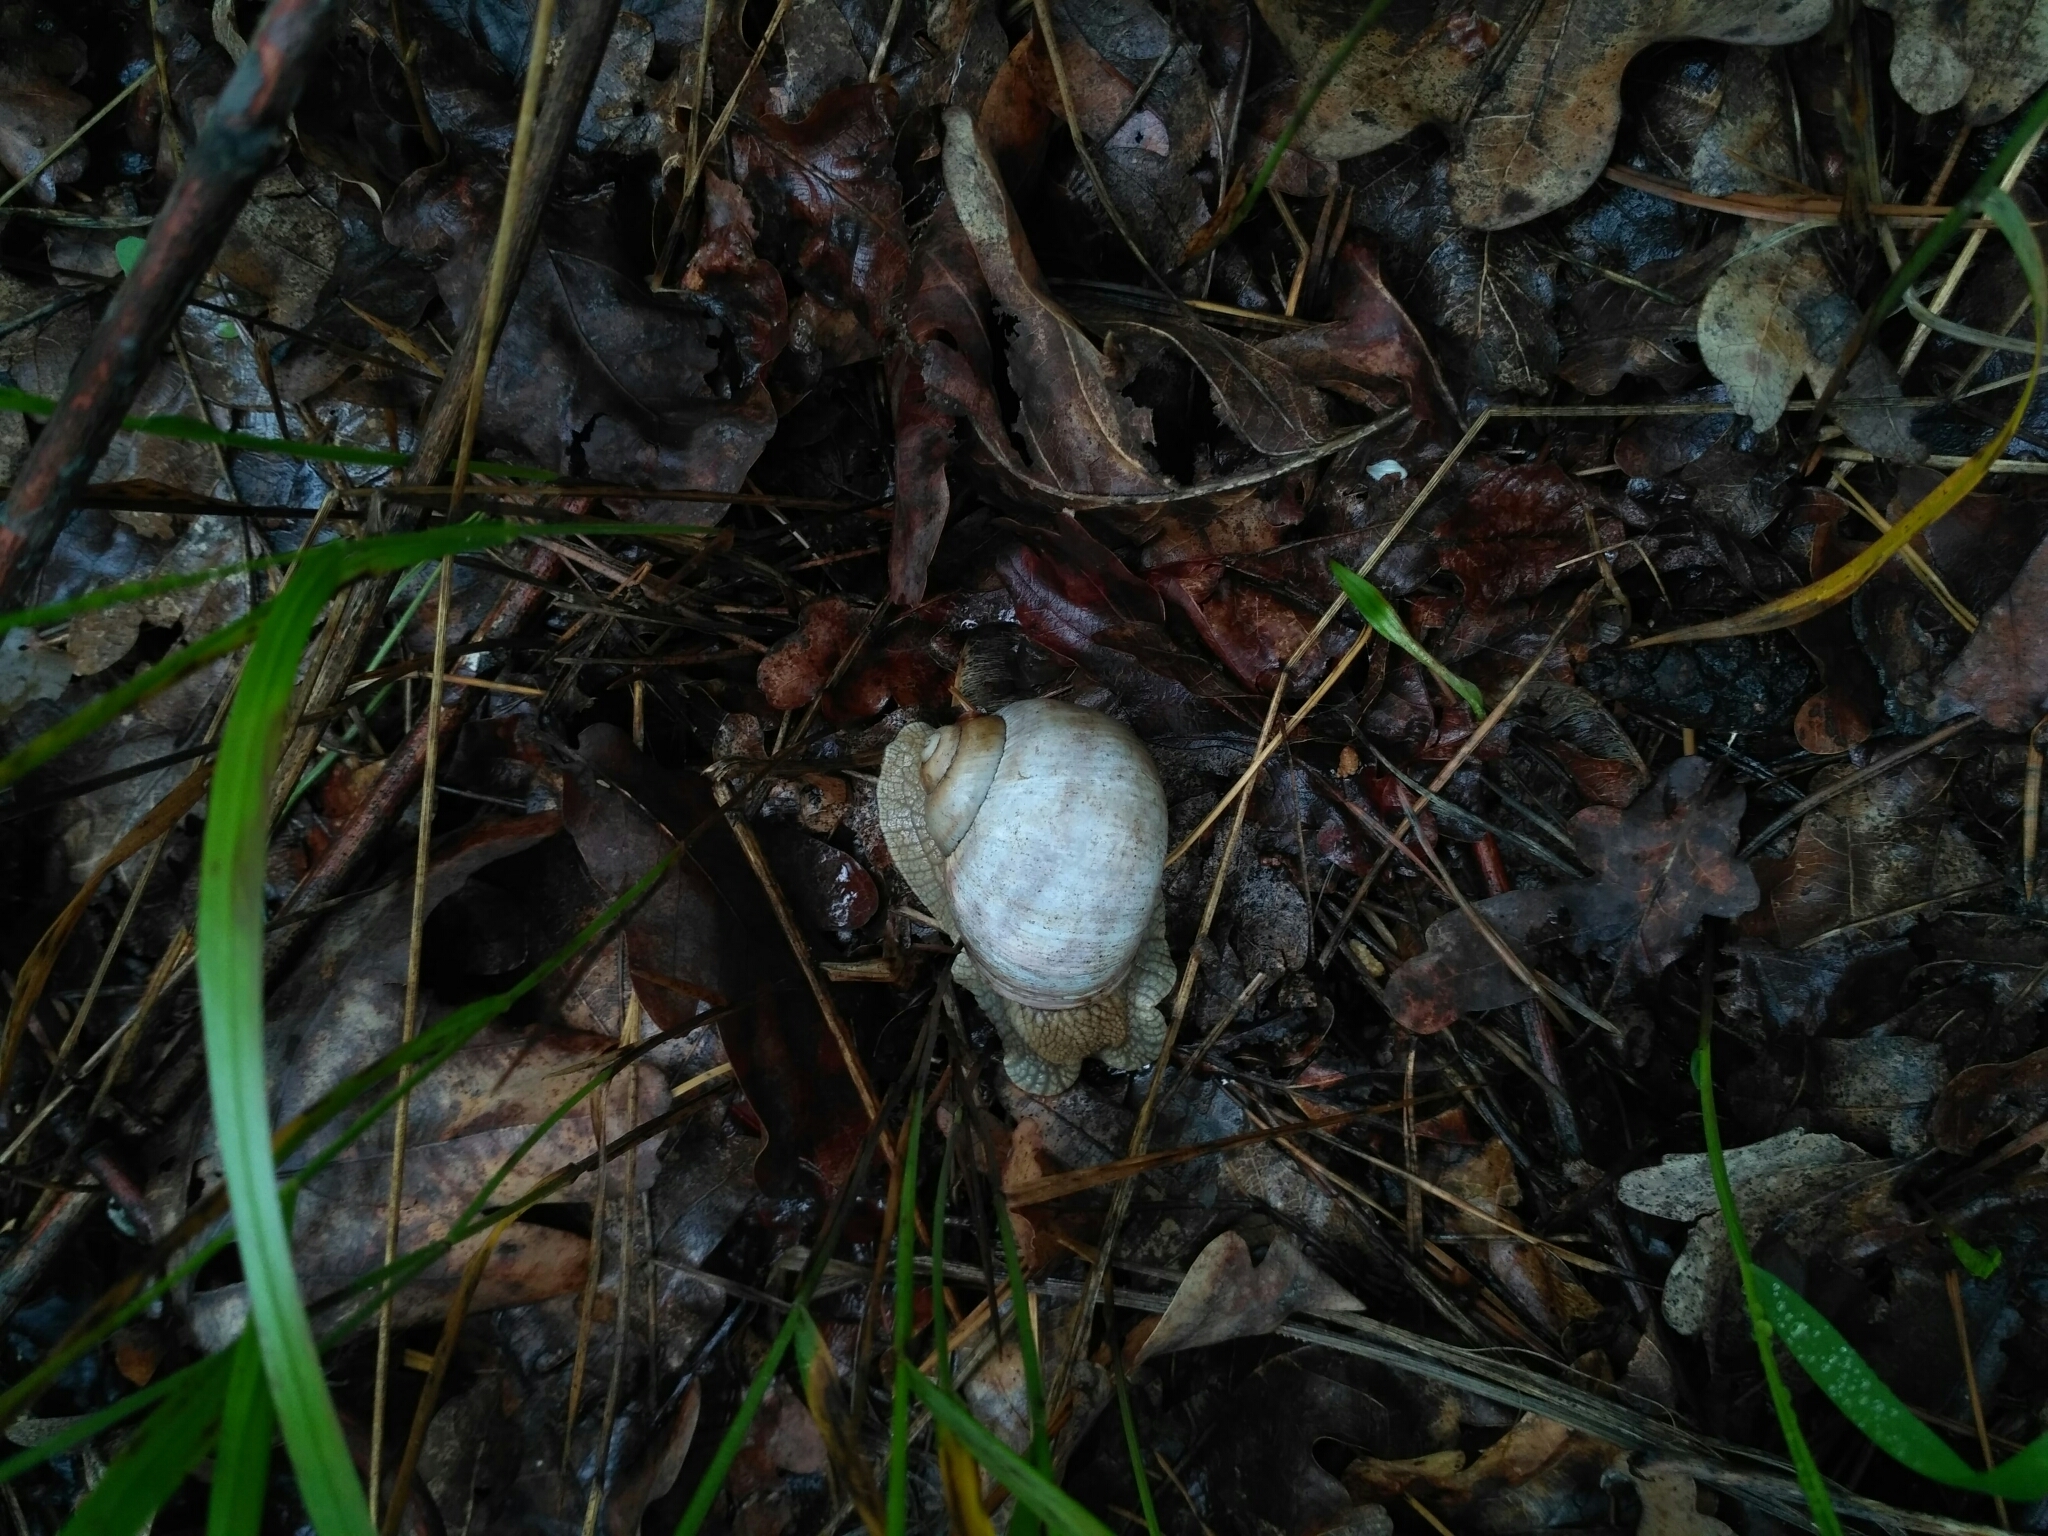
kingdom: Animalia
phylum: Mollusca
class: Gastropoda
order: Stylommatophora
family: Helicidae
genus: Helix
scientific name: Helix pomatia
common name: Roman snail
